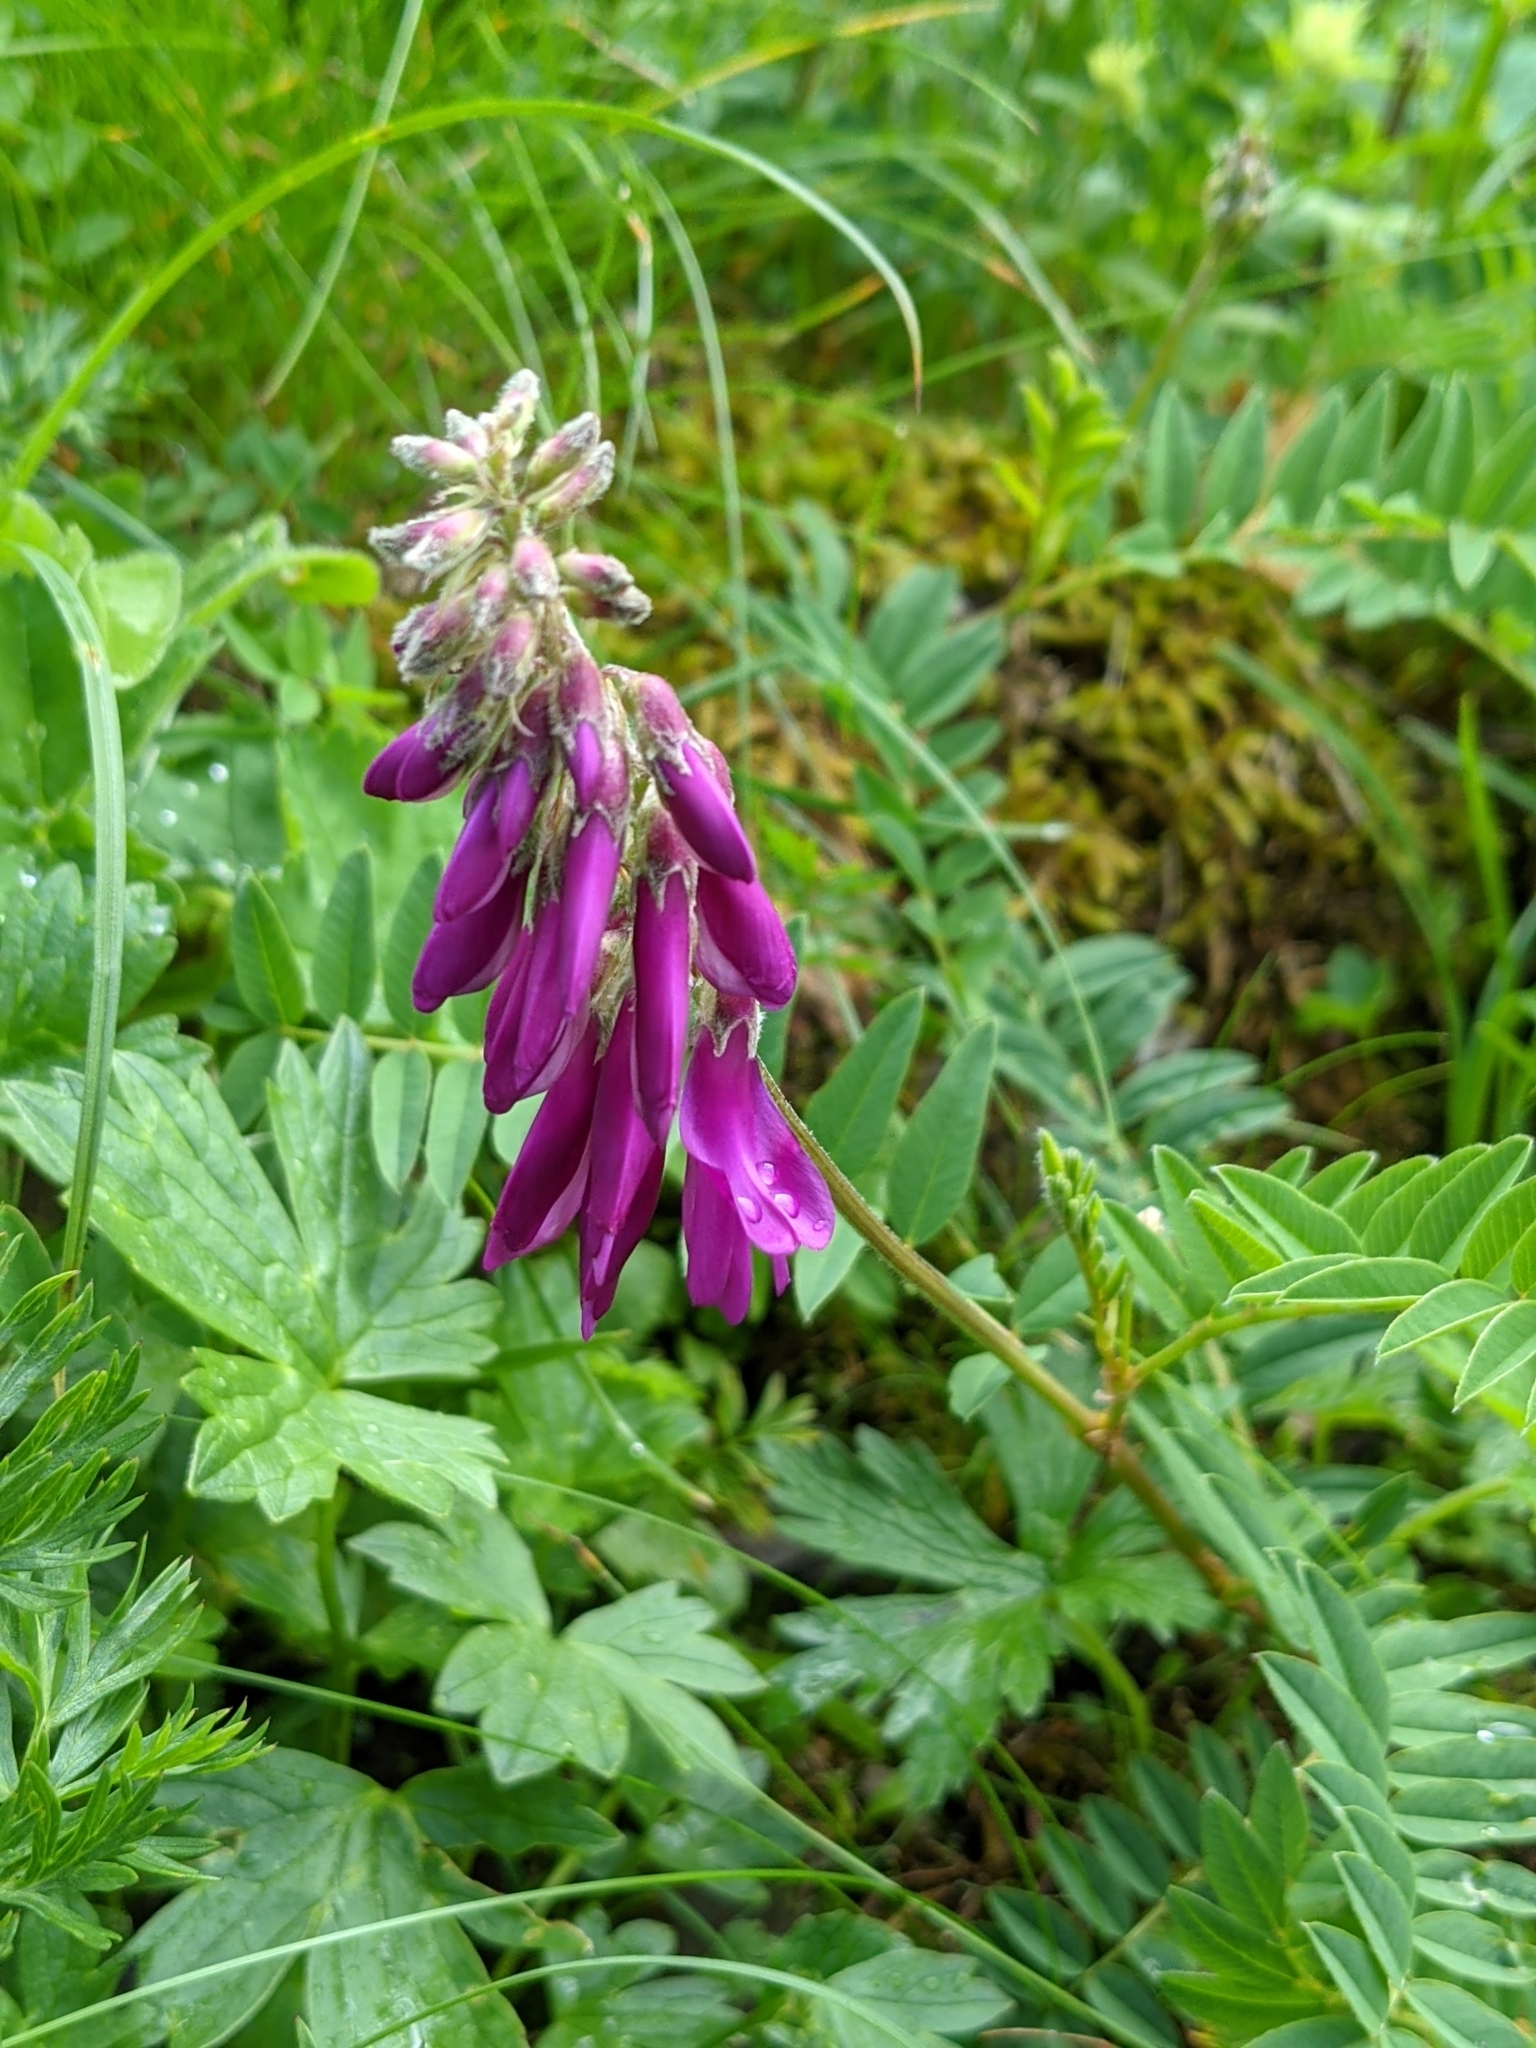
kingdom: Plantae
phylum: Tracheophyta
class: Magnoliopsida
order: Fabales
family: Fabaceae
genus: Hedysarum
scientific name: Hedysarum hedysaroides
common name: Alpine french-honeysuckle
